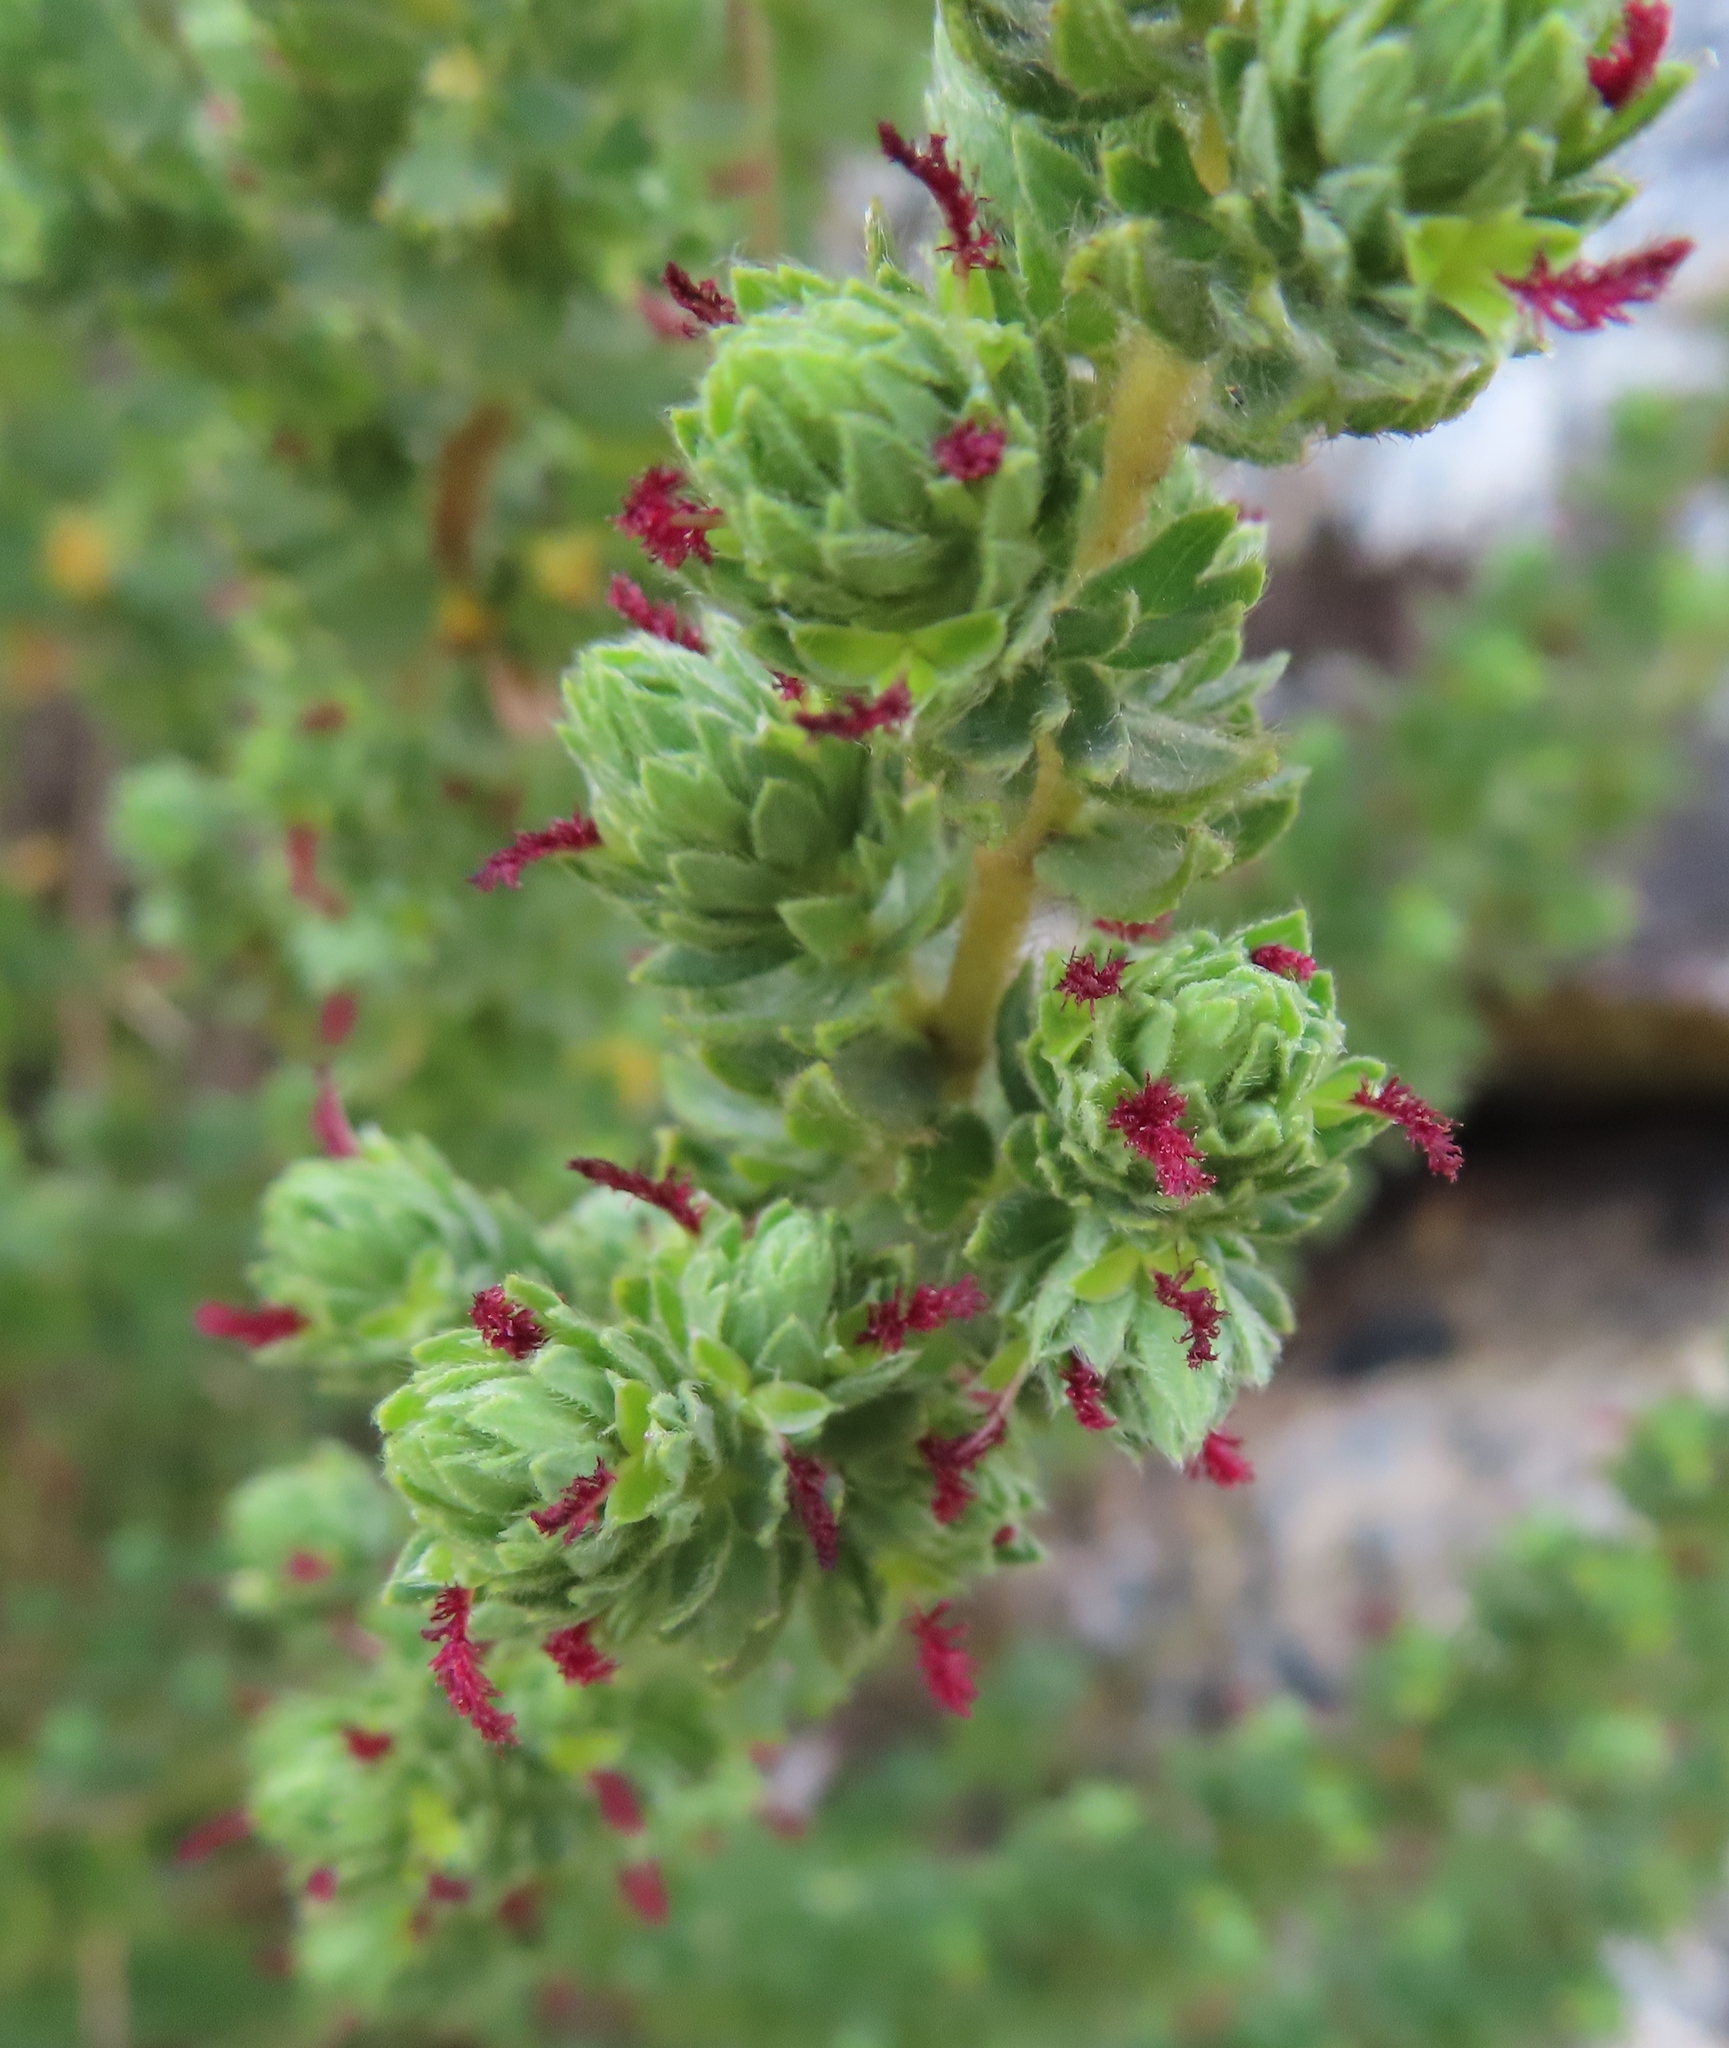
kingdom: Plantae
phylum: Tracheophyta
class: Magnoliopsida
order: Rosales
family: Rosaceae
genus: Cliffortia
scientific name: Cliffortia polygonifolia
